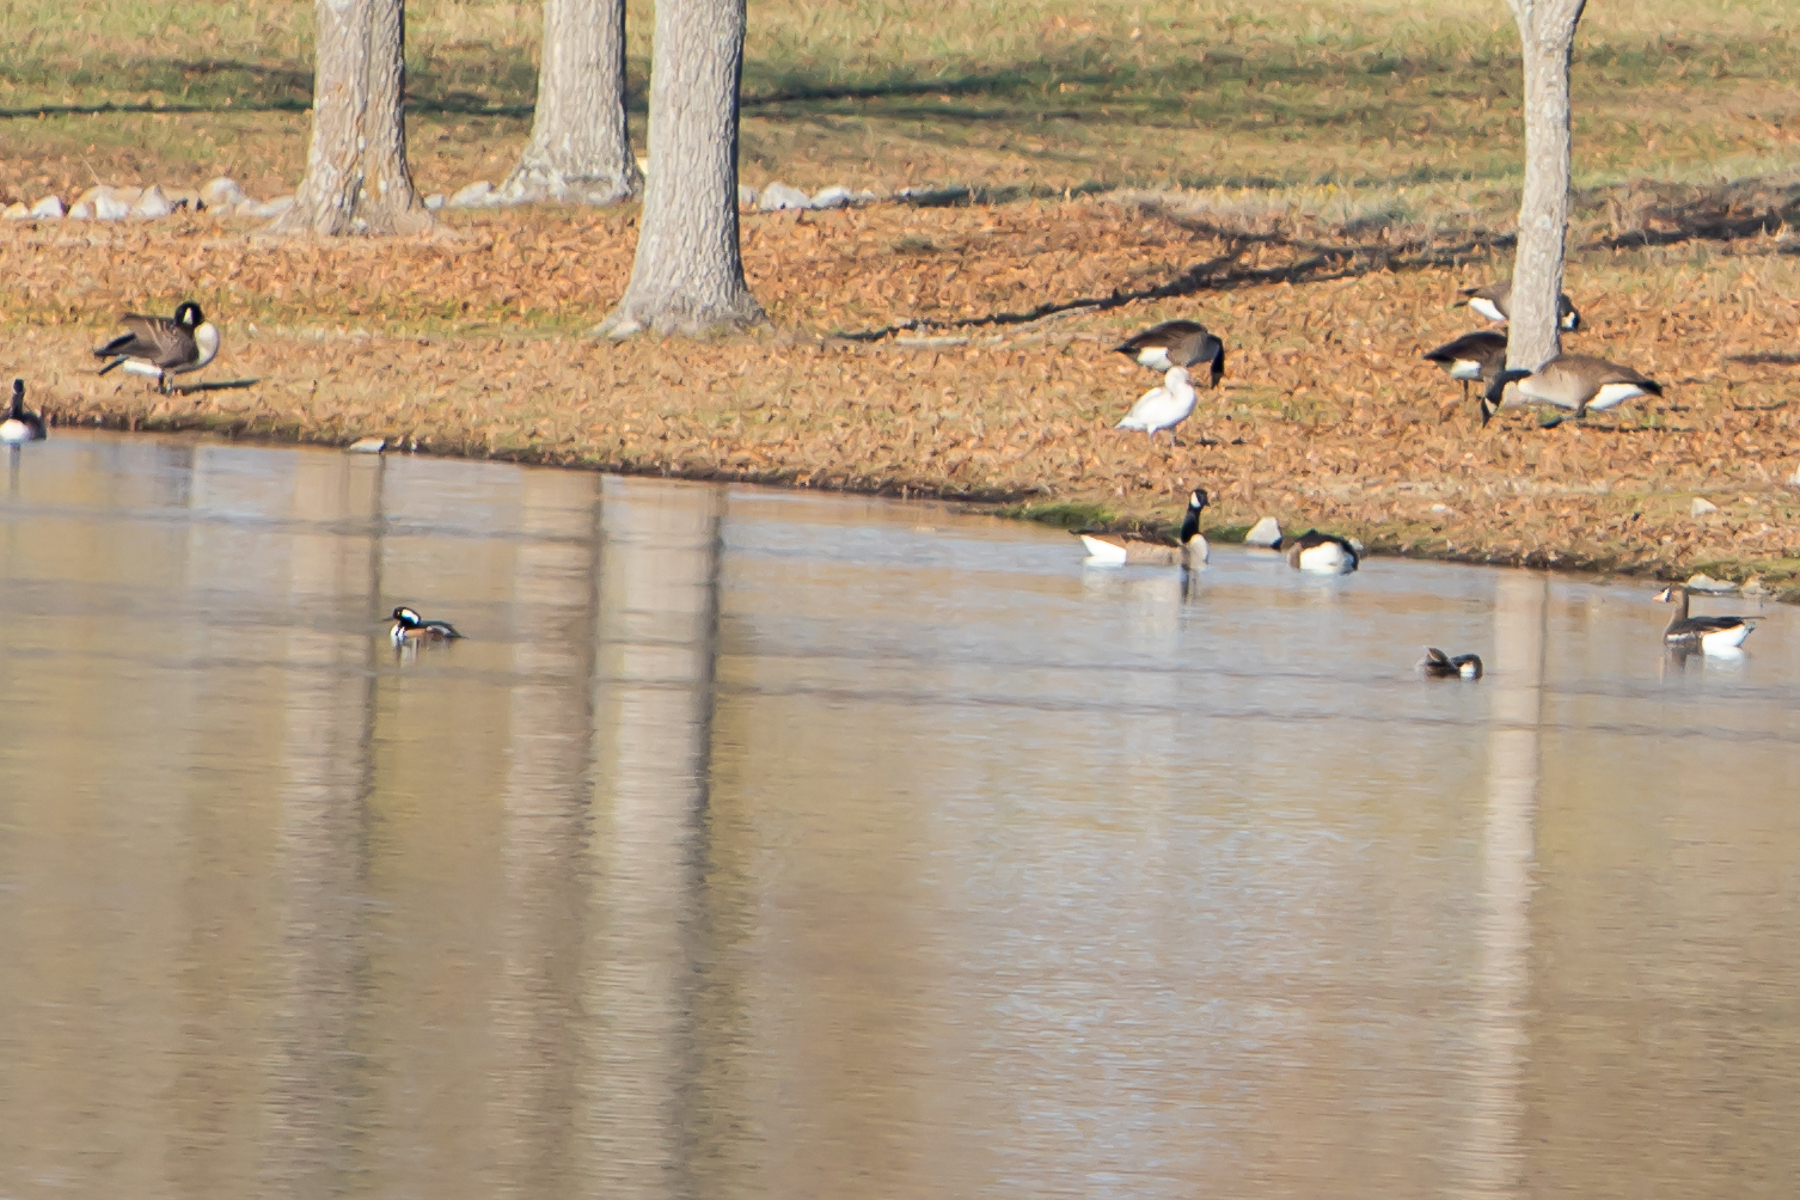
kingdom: Animalia
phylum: Chordata
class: Aves
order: Anseriformes
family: Anatidae
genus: Lophodytes
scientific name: Lophodytes cucullatus
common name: Hooded merganser
